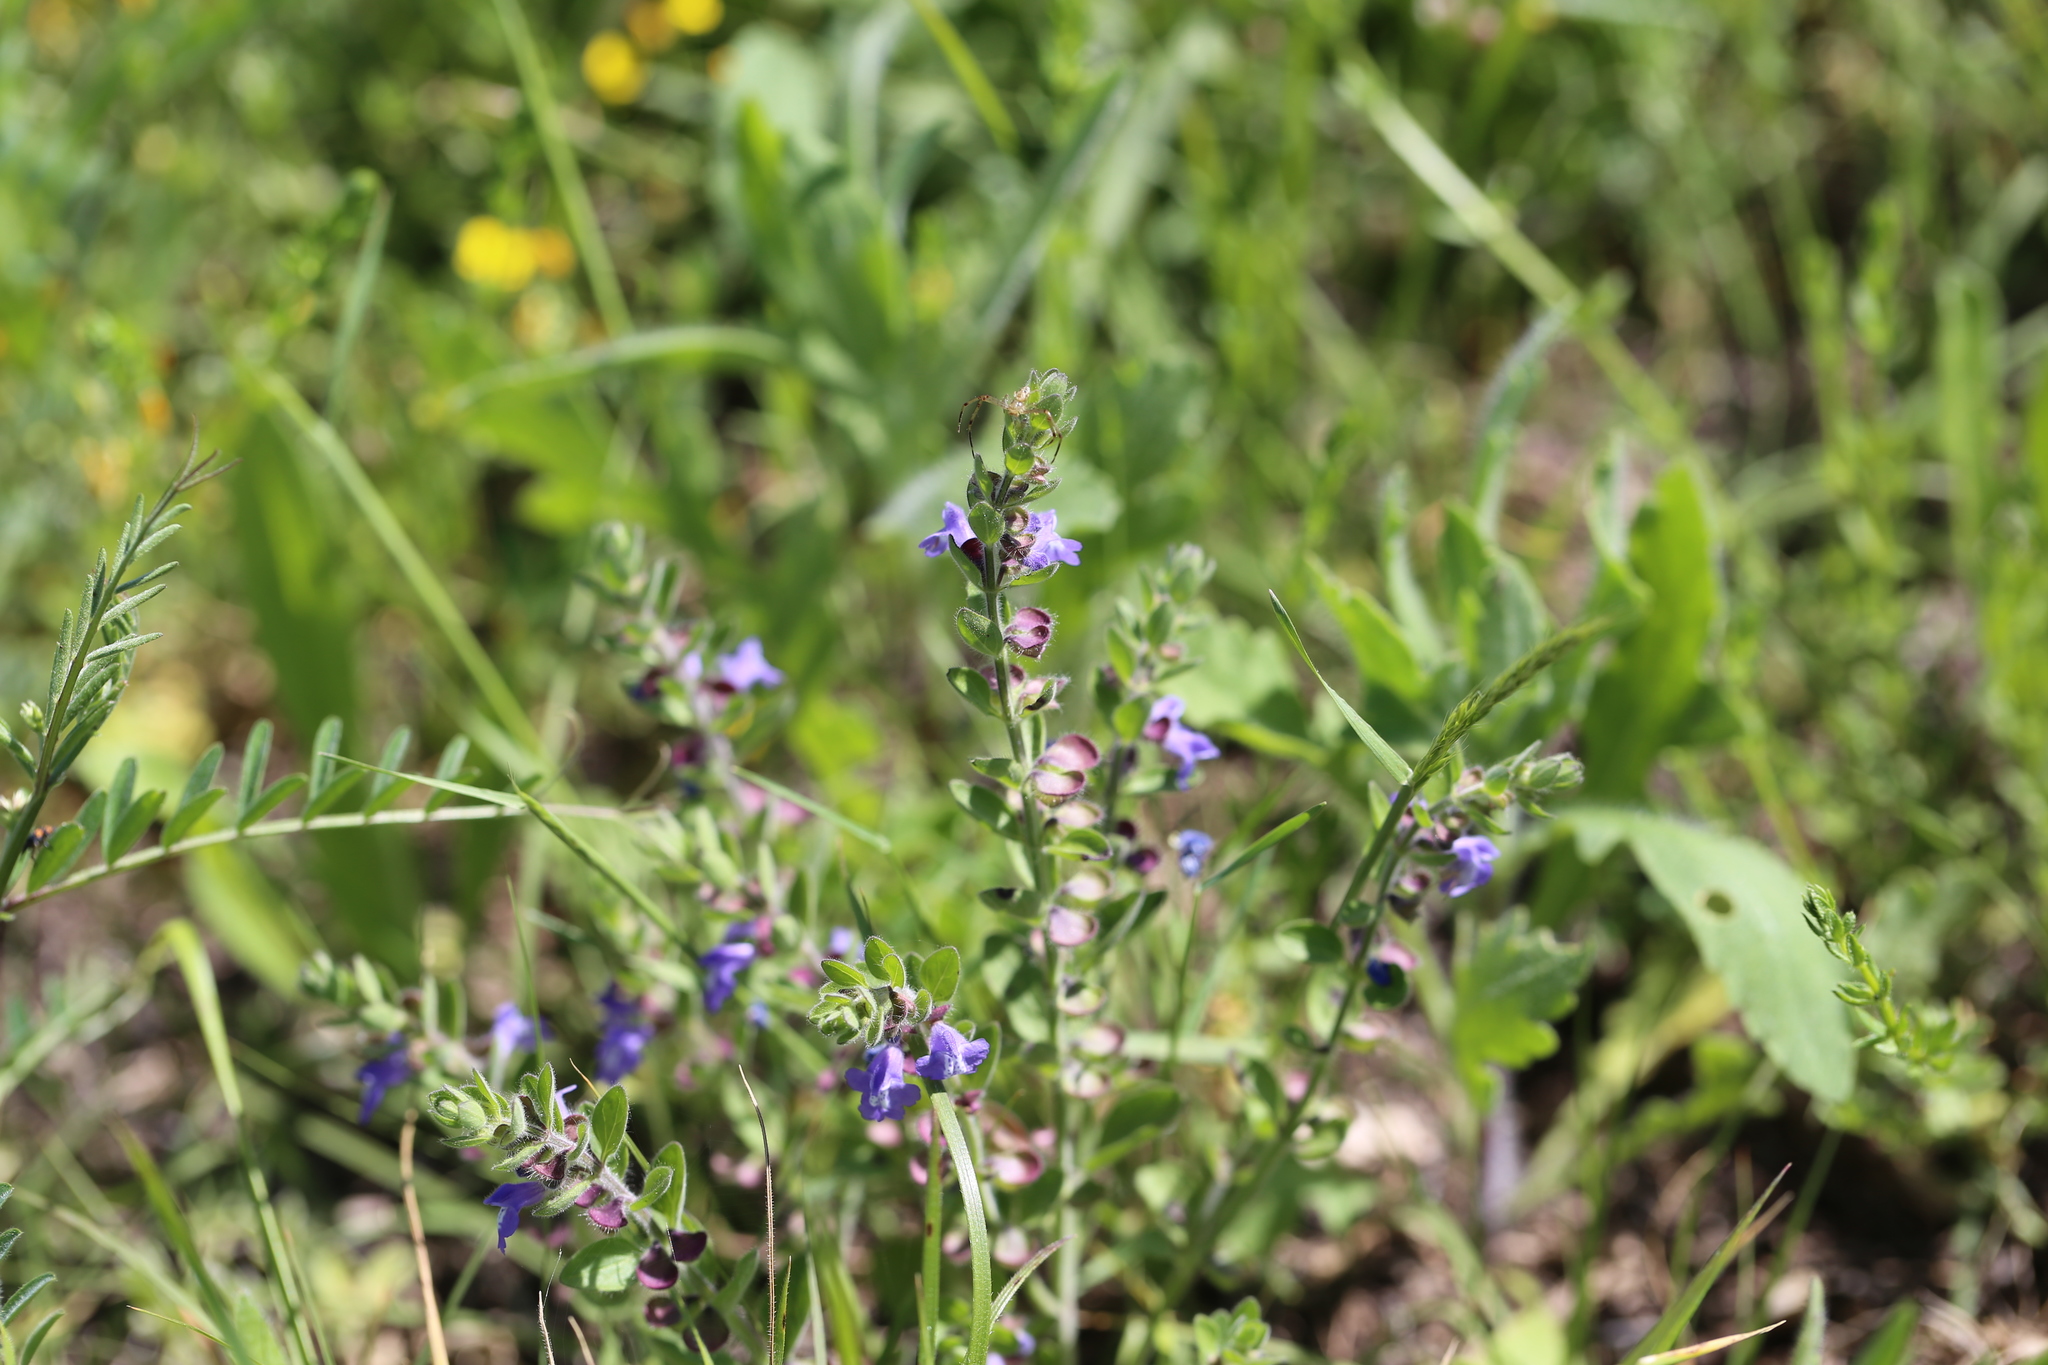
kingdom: Plantae
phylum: Tracheophyta
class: Magnoliopsida
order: Lamiales
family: Lamiaceae
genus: Scutellaria
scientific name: Scutellaria drummondii
